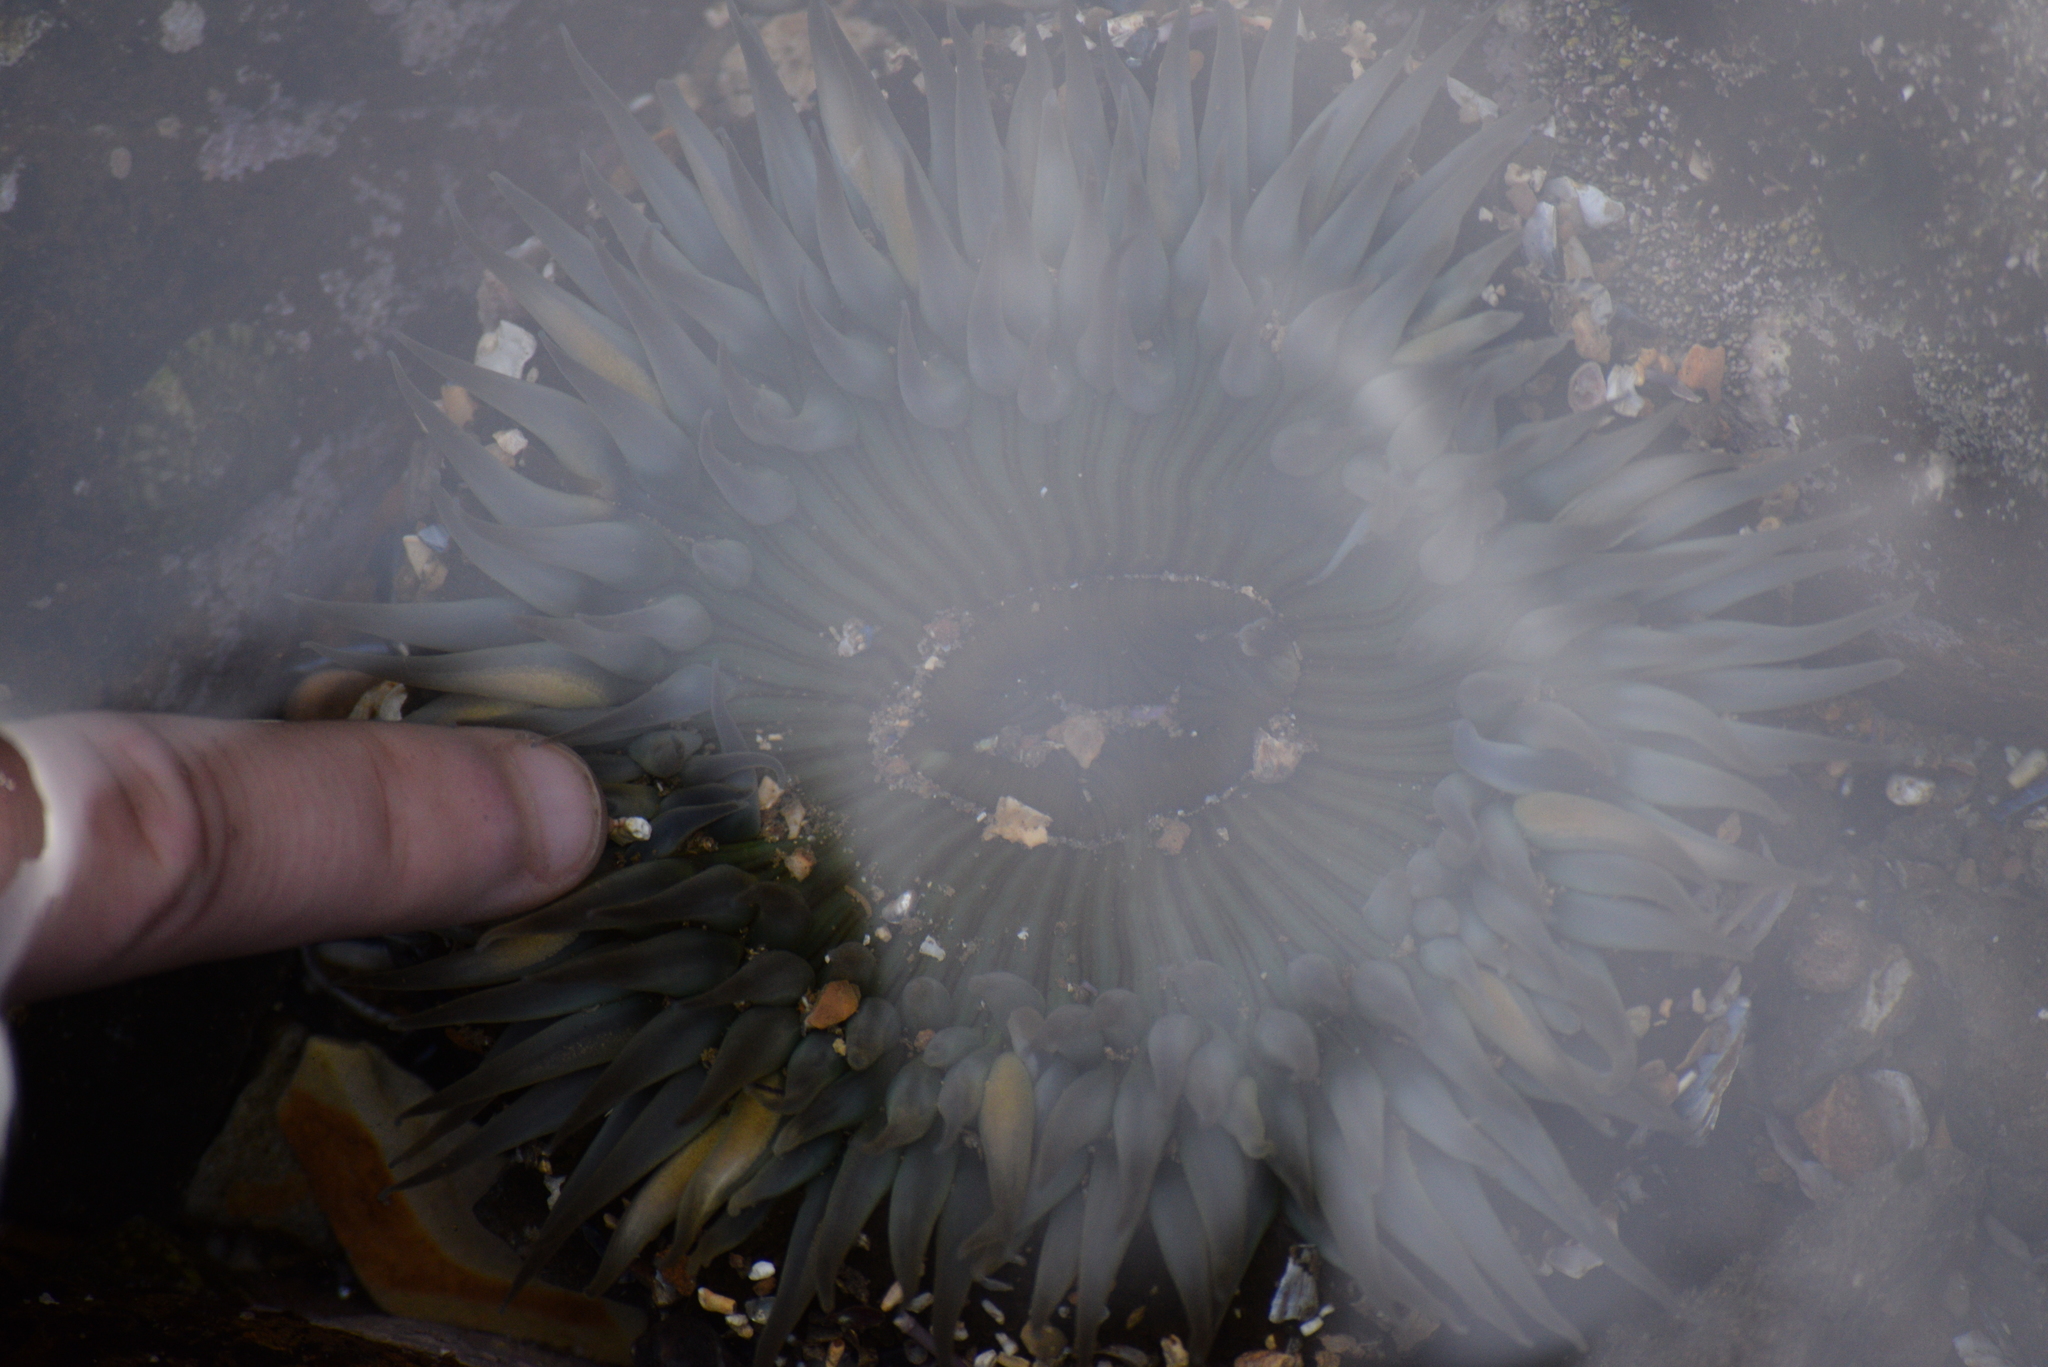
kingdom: Animalia
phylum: Cnidaria
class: Anthozoa
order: Actiniaria
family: Actiniidae
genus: Anthopleura
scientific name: Anthopleura sola
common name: Sun anemone
